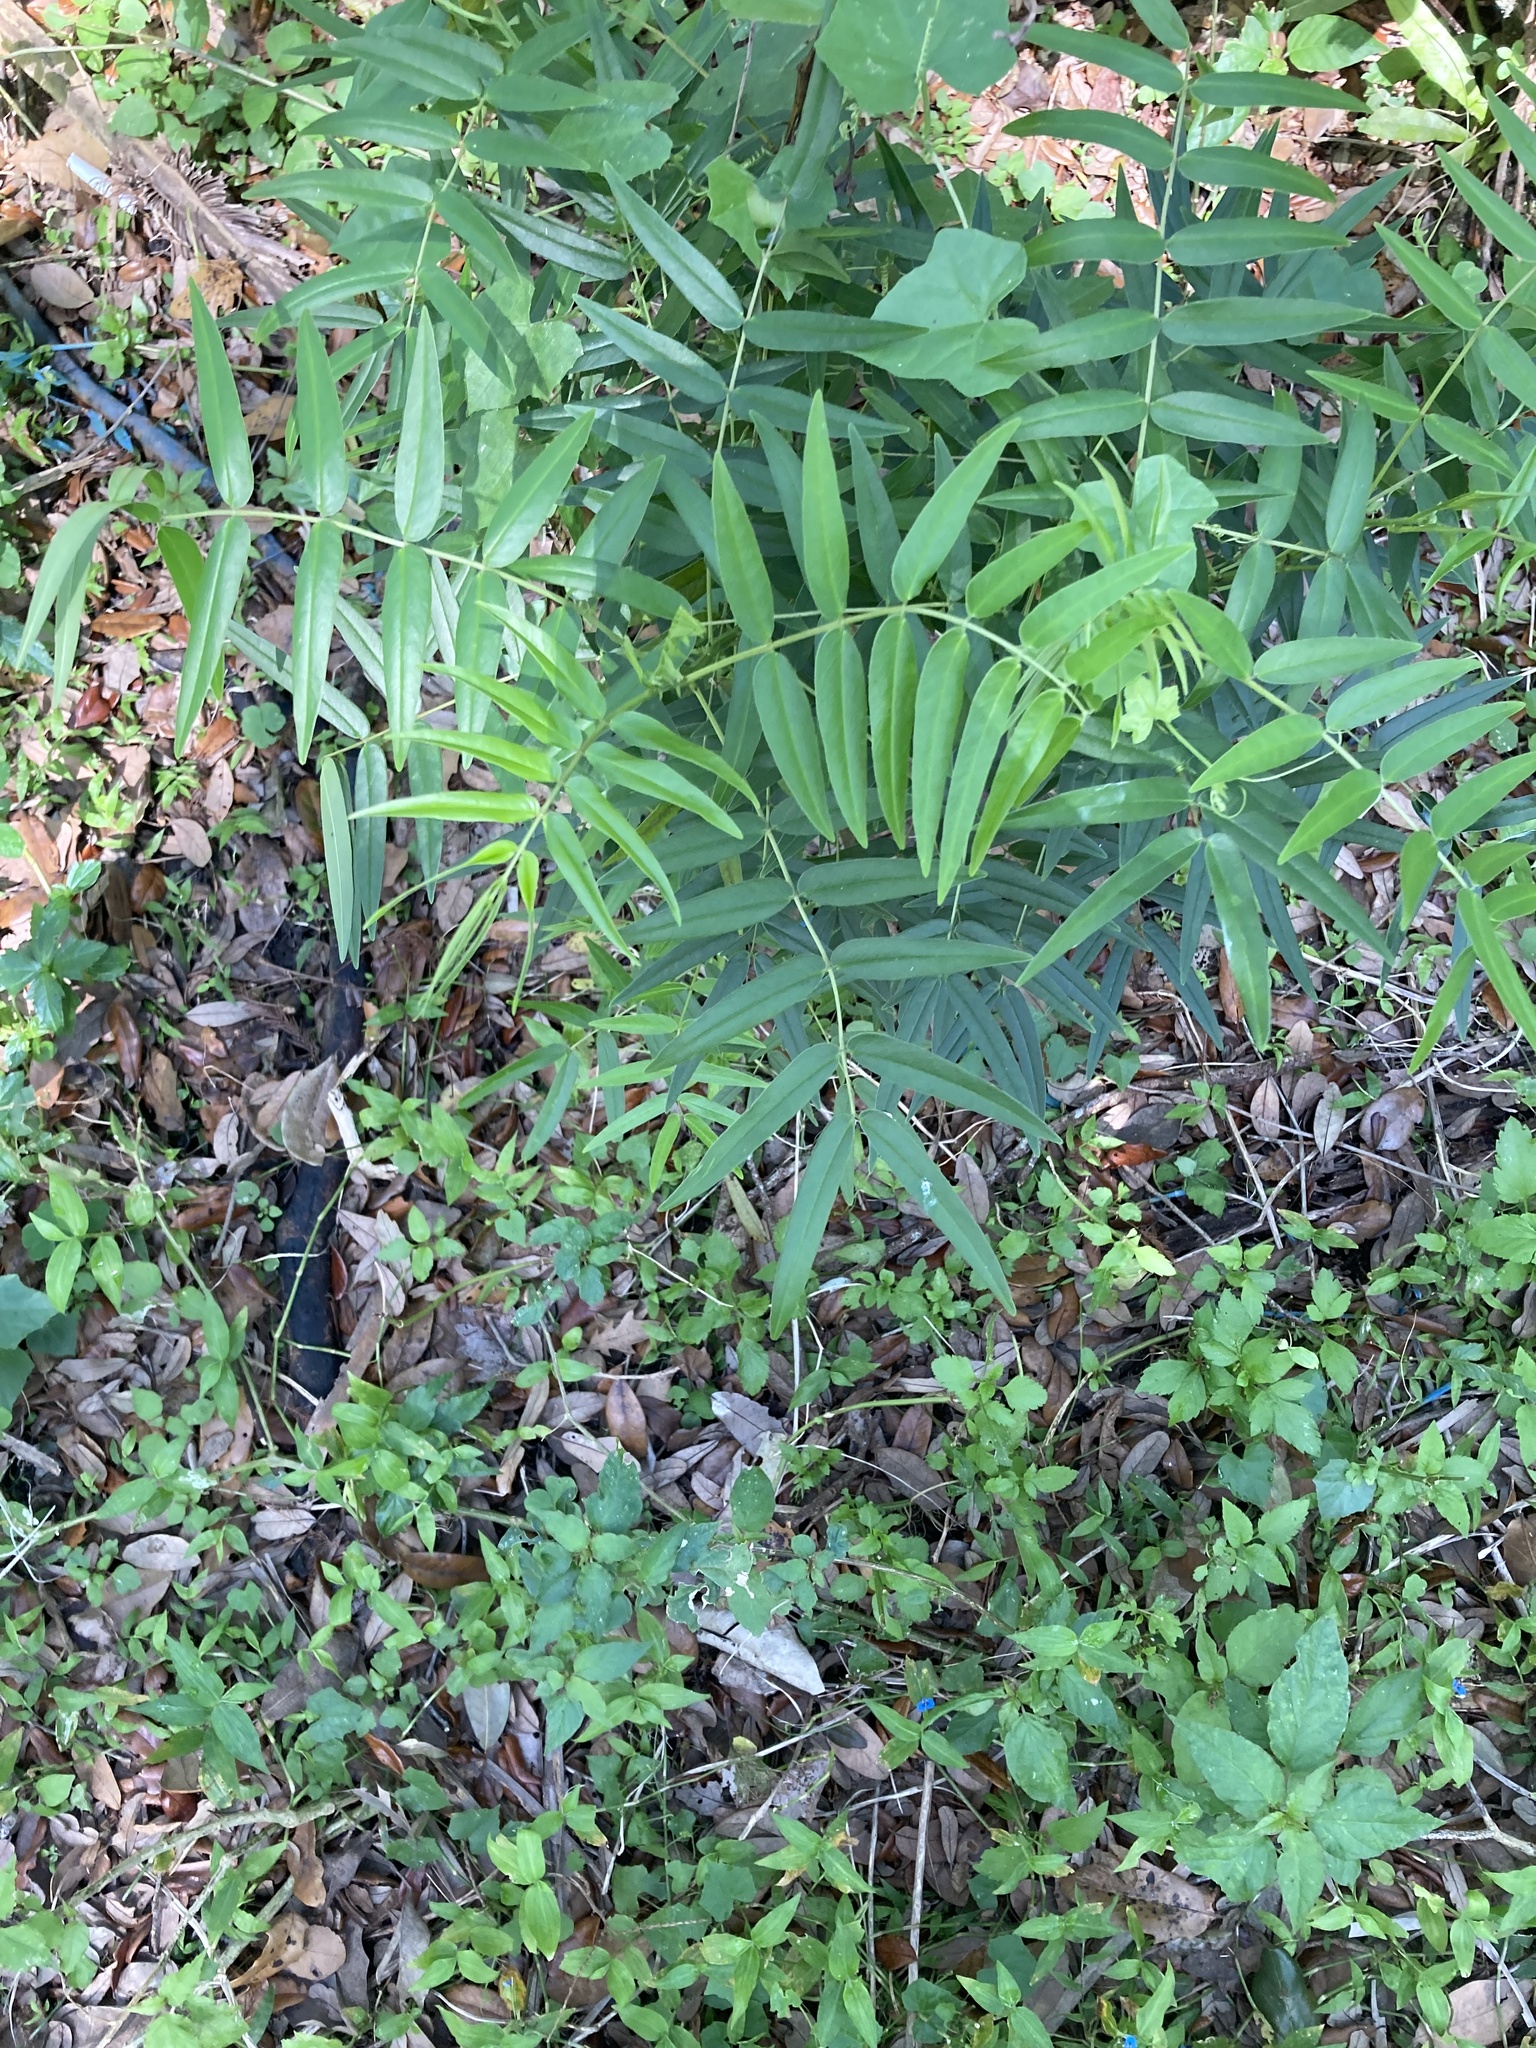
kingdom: Plantae
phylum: Tracheophyta
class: Magnoliopsida
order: Fabales
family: Fabaceae
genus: Senna
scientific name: Senna ligustrina
